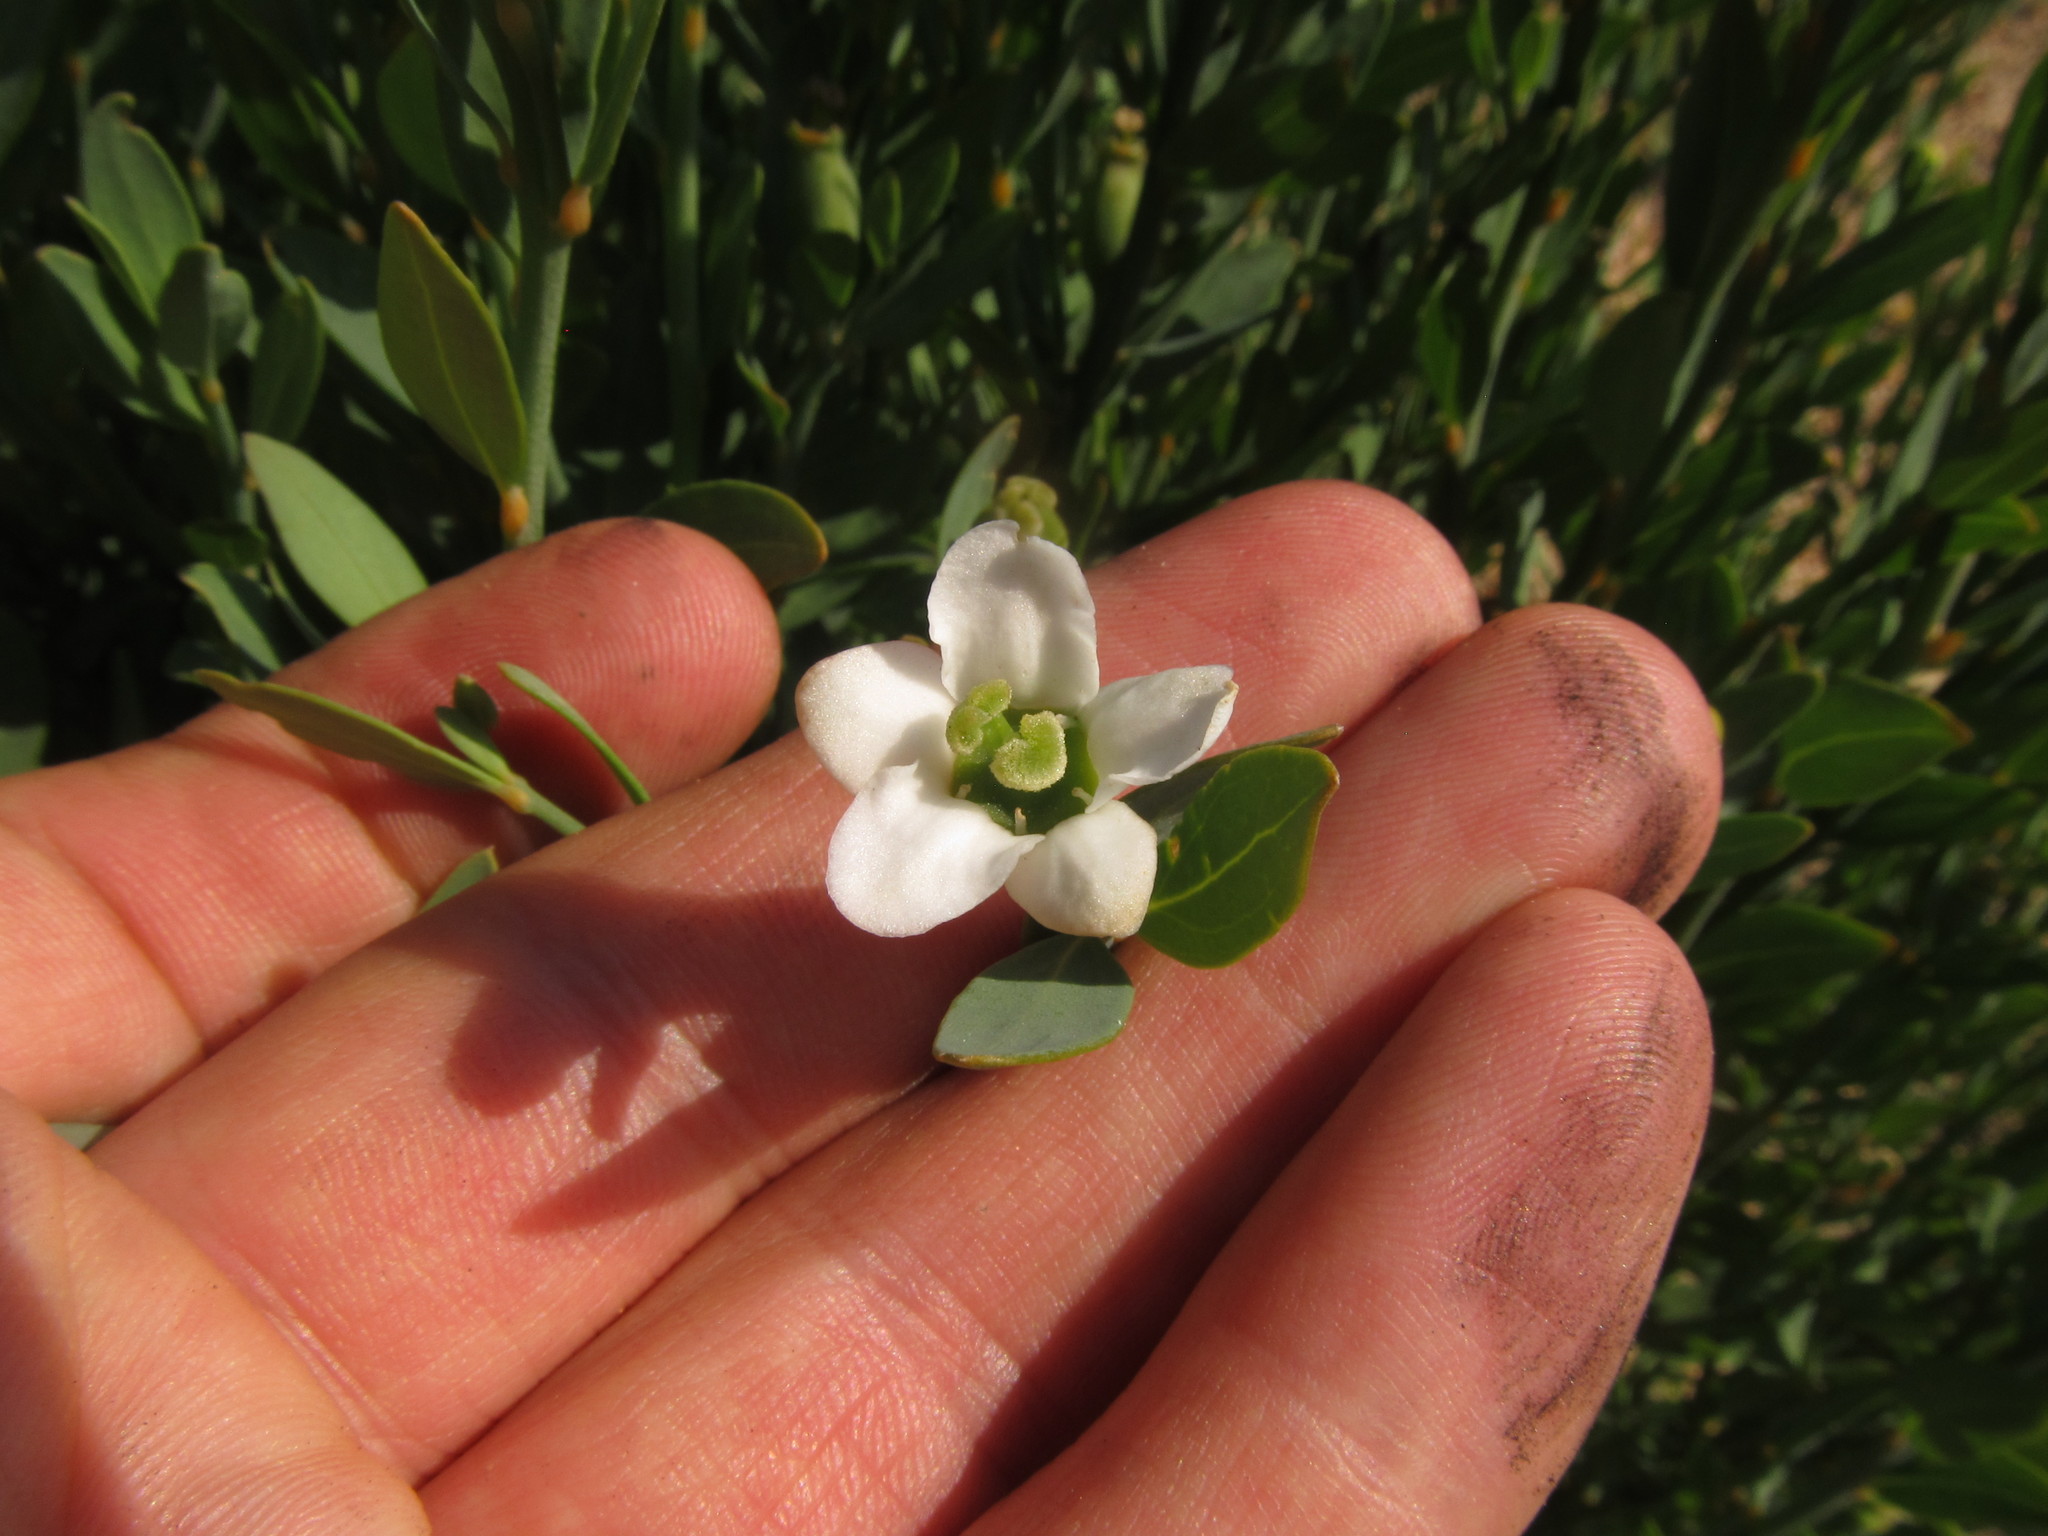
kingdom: Plantae
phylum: Tracheophyta
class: Magnoliopsida
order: Solanales
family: Montiniaceae
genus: Montinia
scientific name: Montinia caryophyllacea
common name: Wild clove-bush
